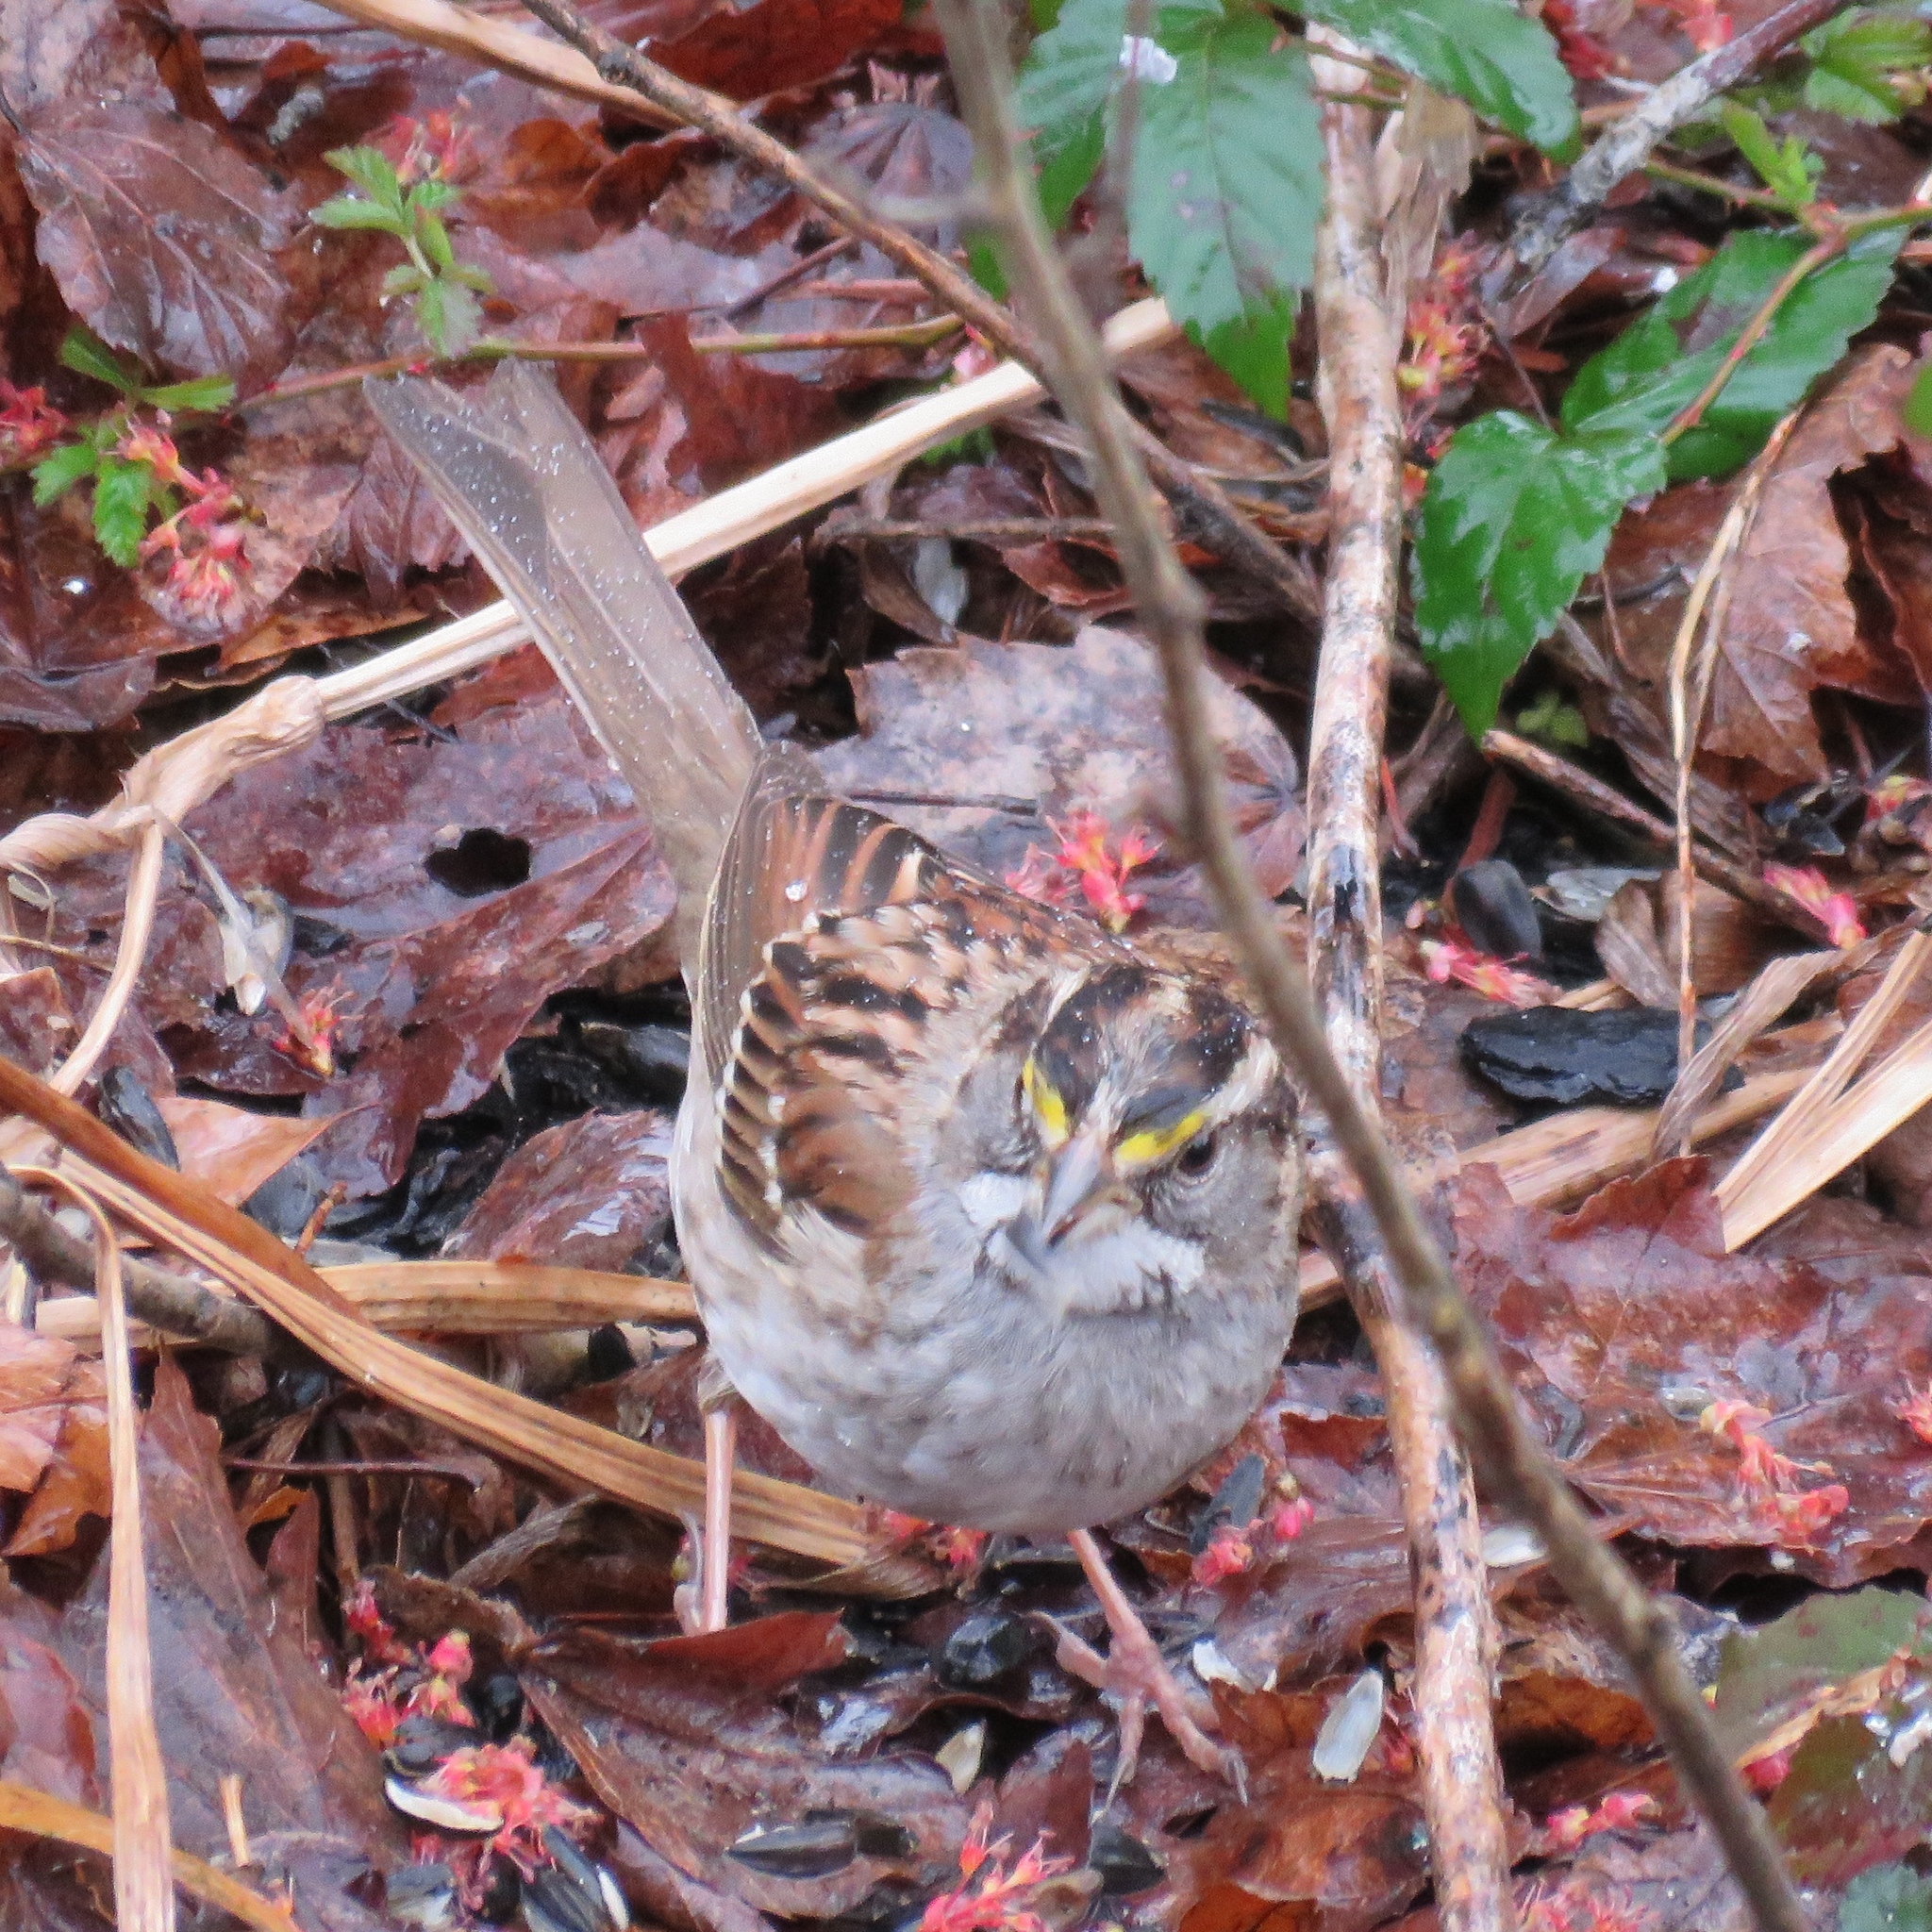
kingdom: Animalia
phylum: Chordata
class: Aves
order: Passeriformes
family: Passerellidae
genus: Zonotrichia
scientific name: Zonotrichia albicollis
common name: White-throated sparrow
